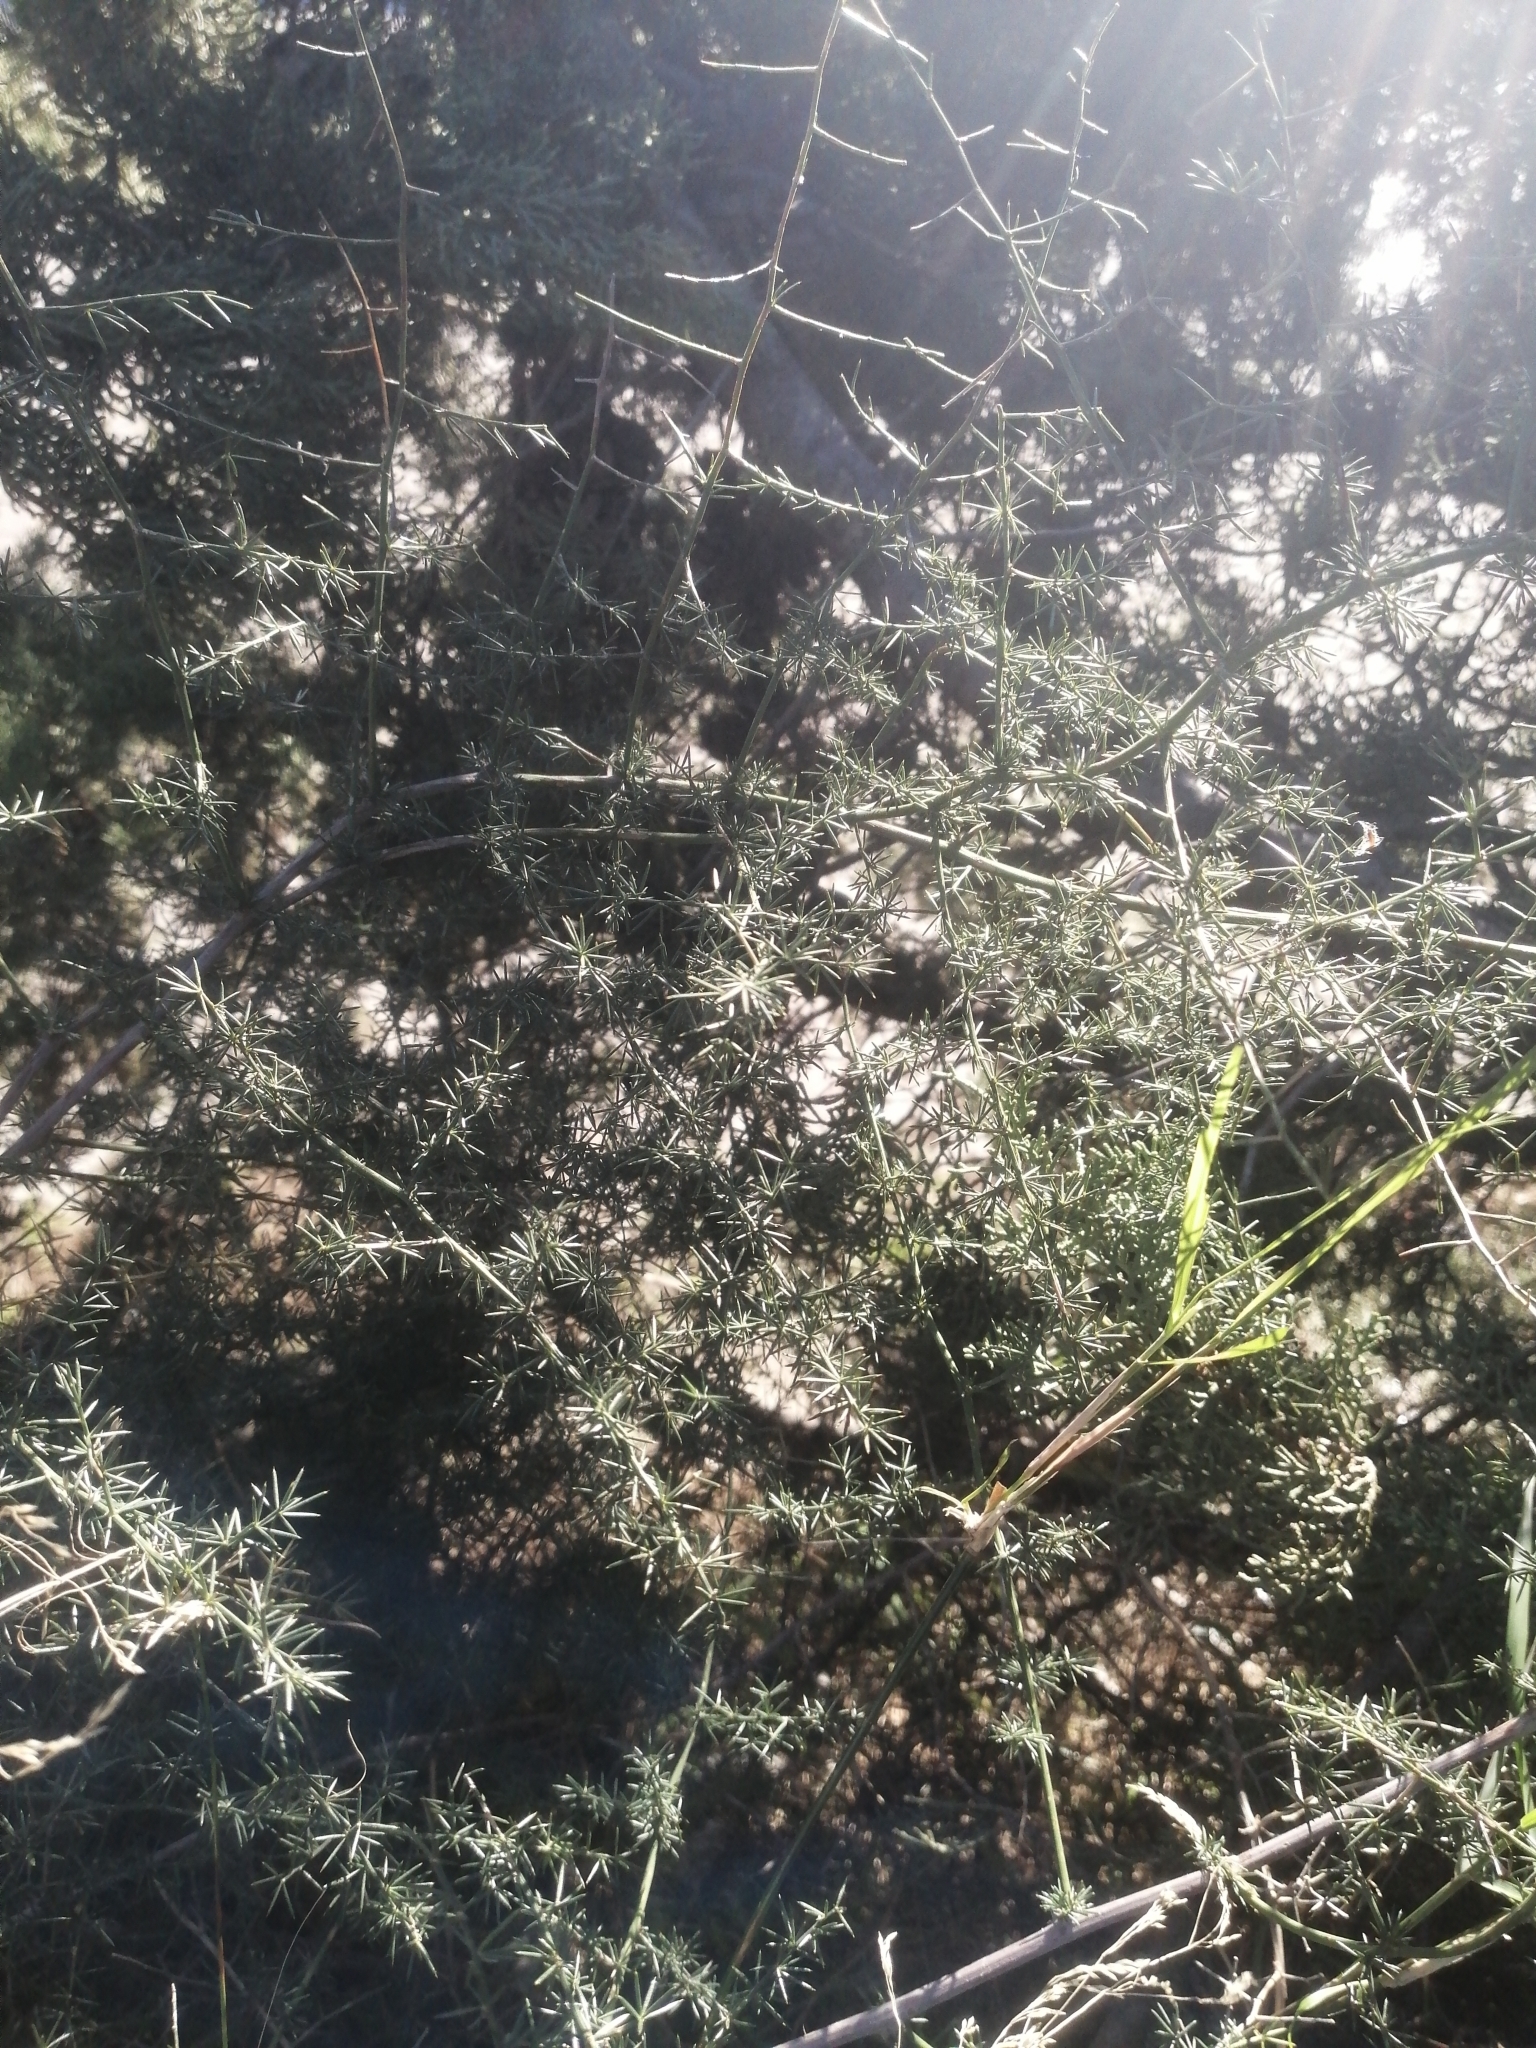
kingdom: Plantae
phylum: Tracheophyta
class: Liliopsida
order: Asparagales
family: Asparagaceae
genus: Asparagus
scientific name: Asparagus acutifolius
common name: Wild asparagus
